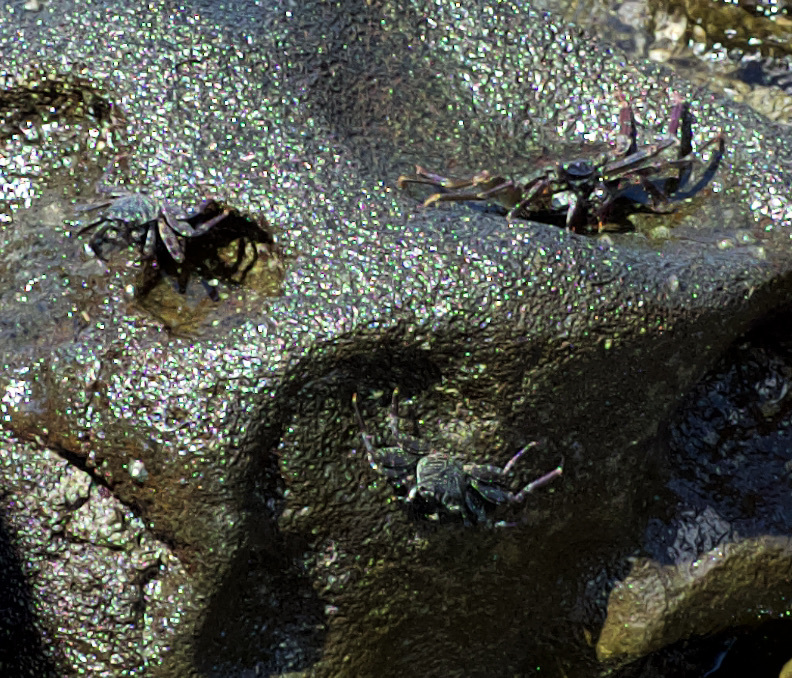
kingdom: Animalia
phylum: Arthropoda
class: Malacostraca
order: Decapoda
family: Grapsidae
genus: Grapsus
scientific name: Grapsus tenuicrustatus
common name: Natal lightfoot crab
